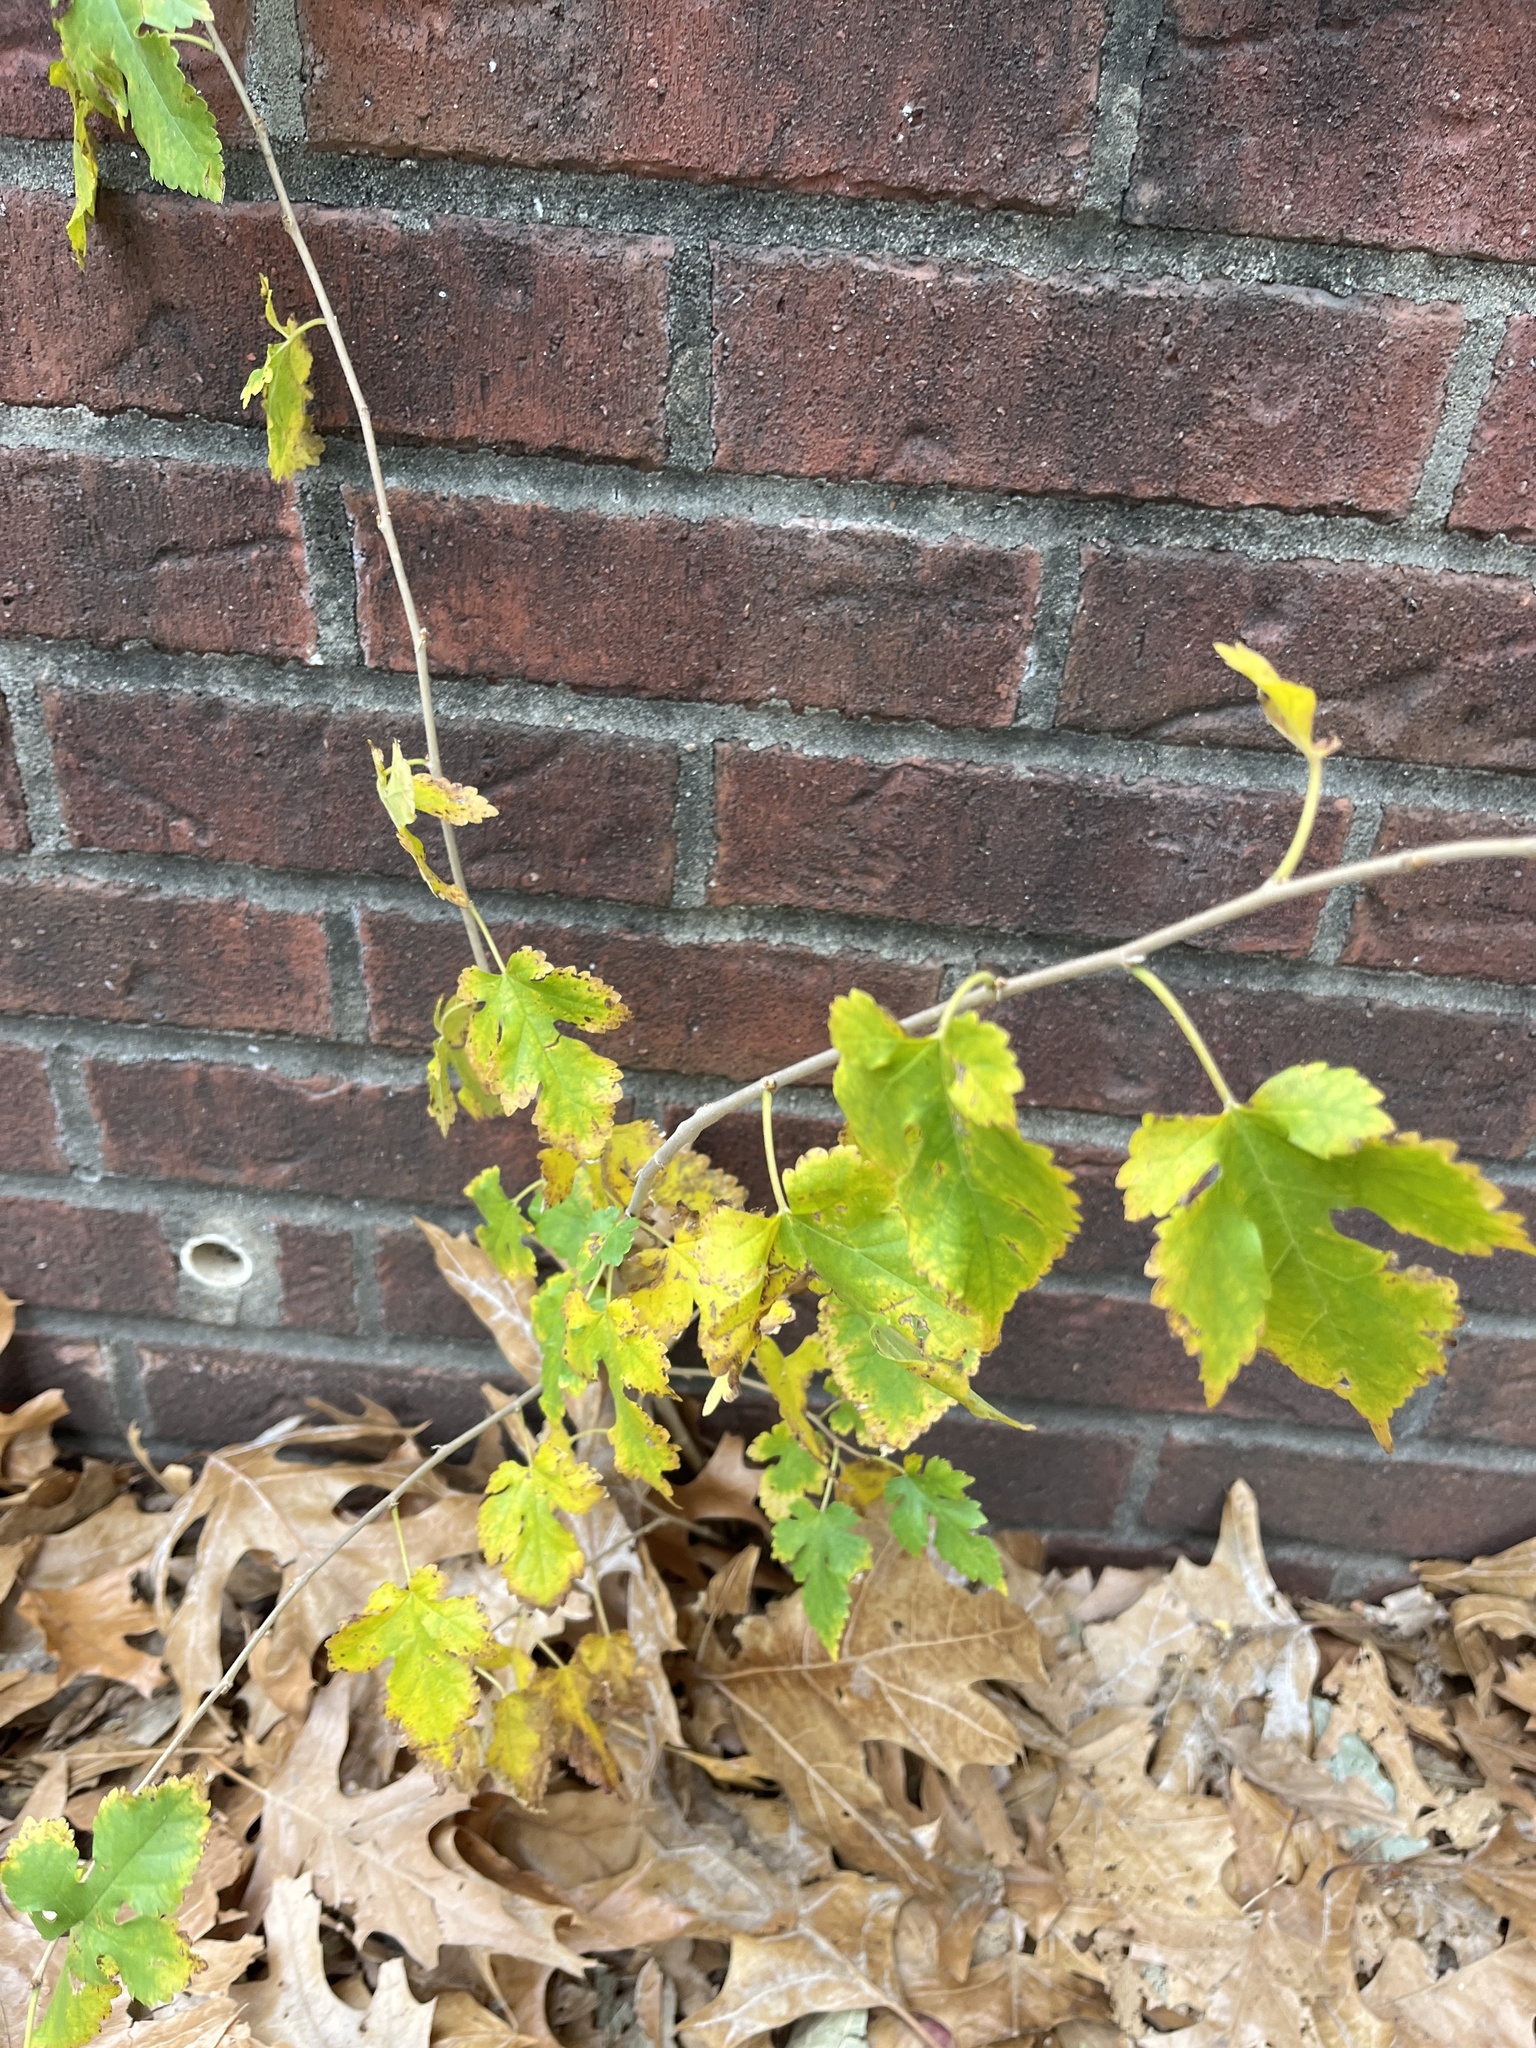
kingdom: Plantae
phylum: Tracheophyta
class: Magnoliopsida
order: Rosales
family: Moraceae
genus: Morus
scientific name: Morus alba
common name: White mulberry
